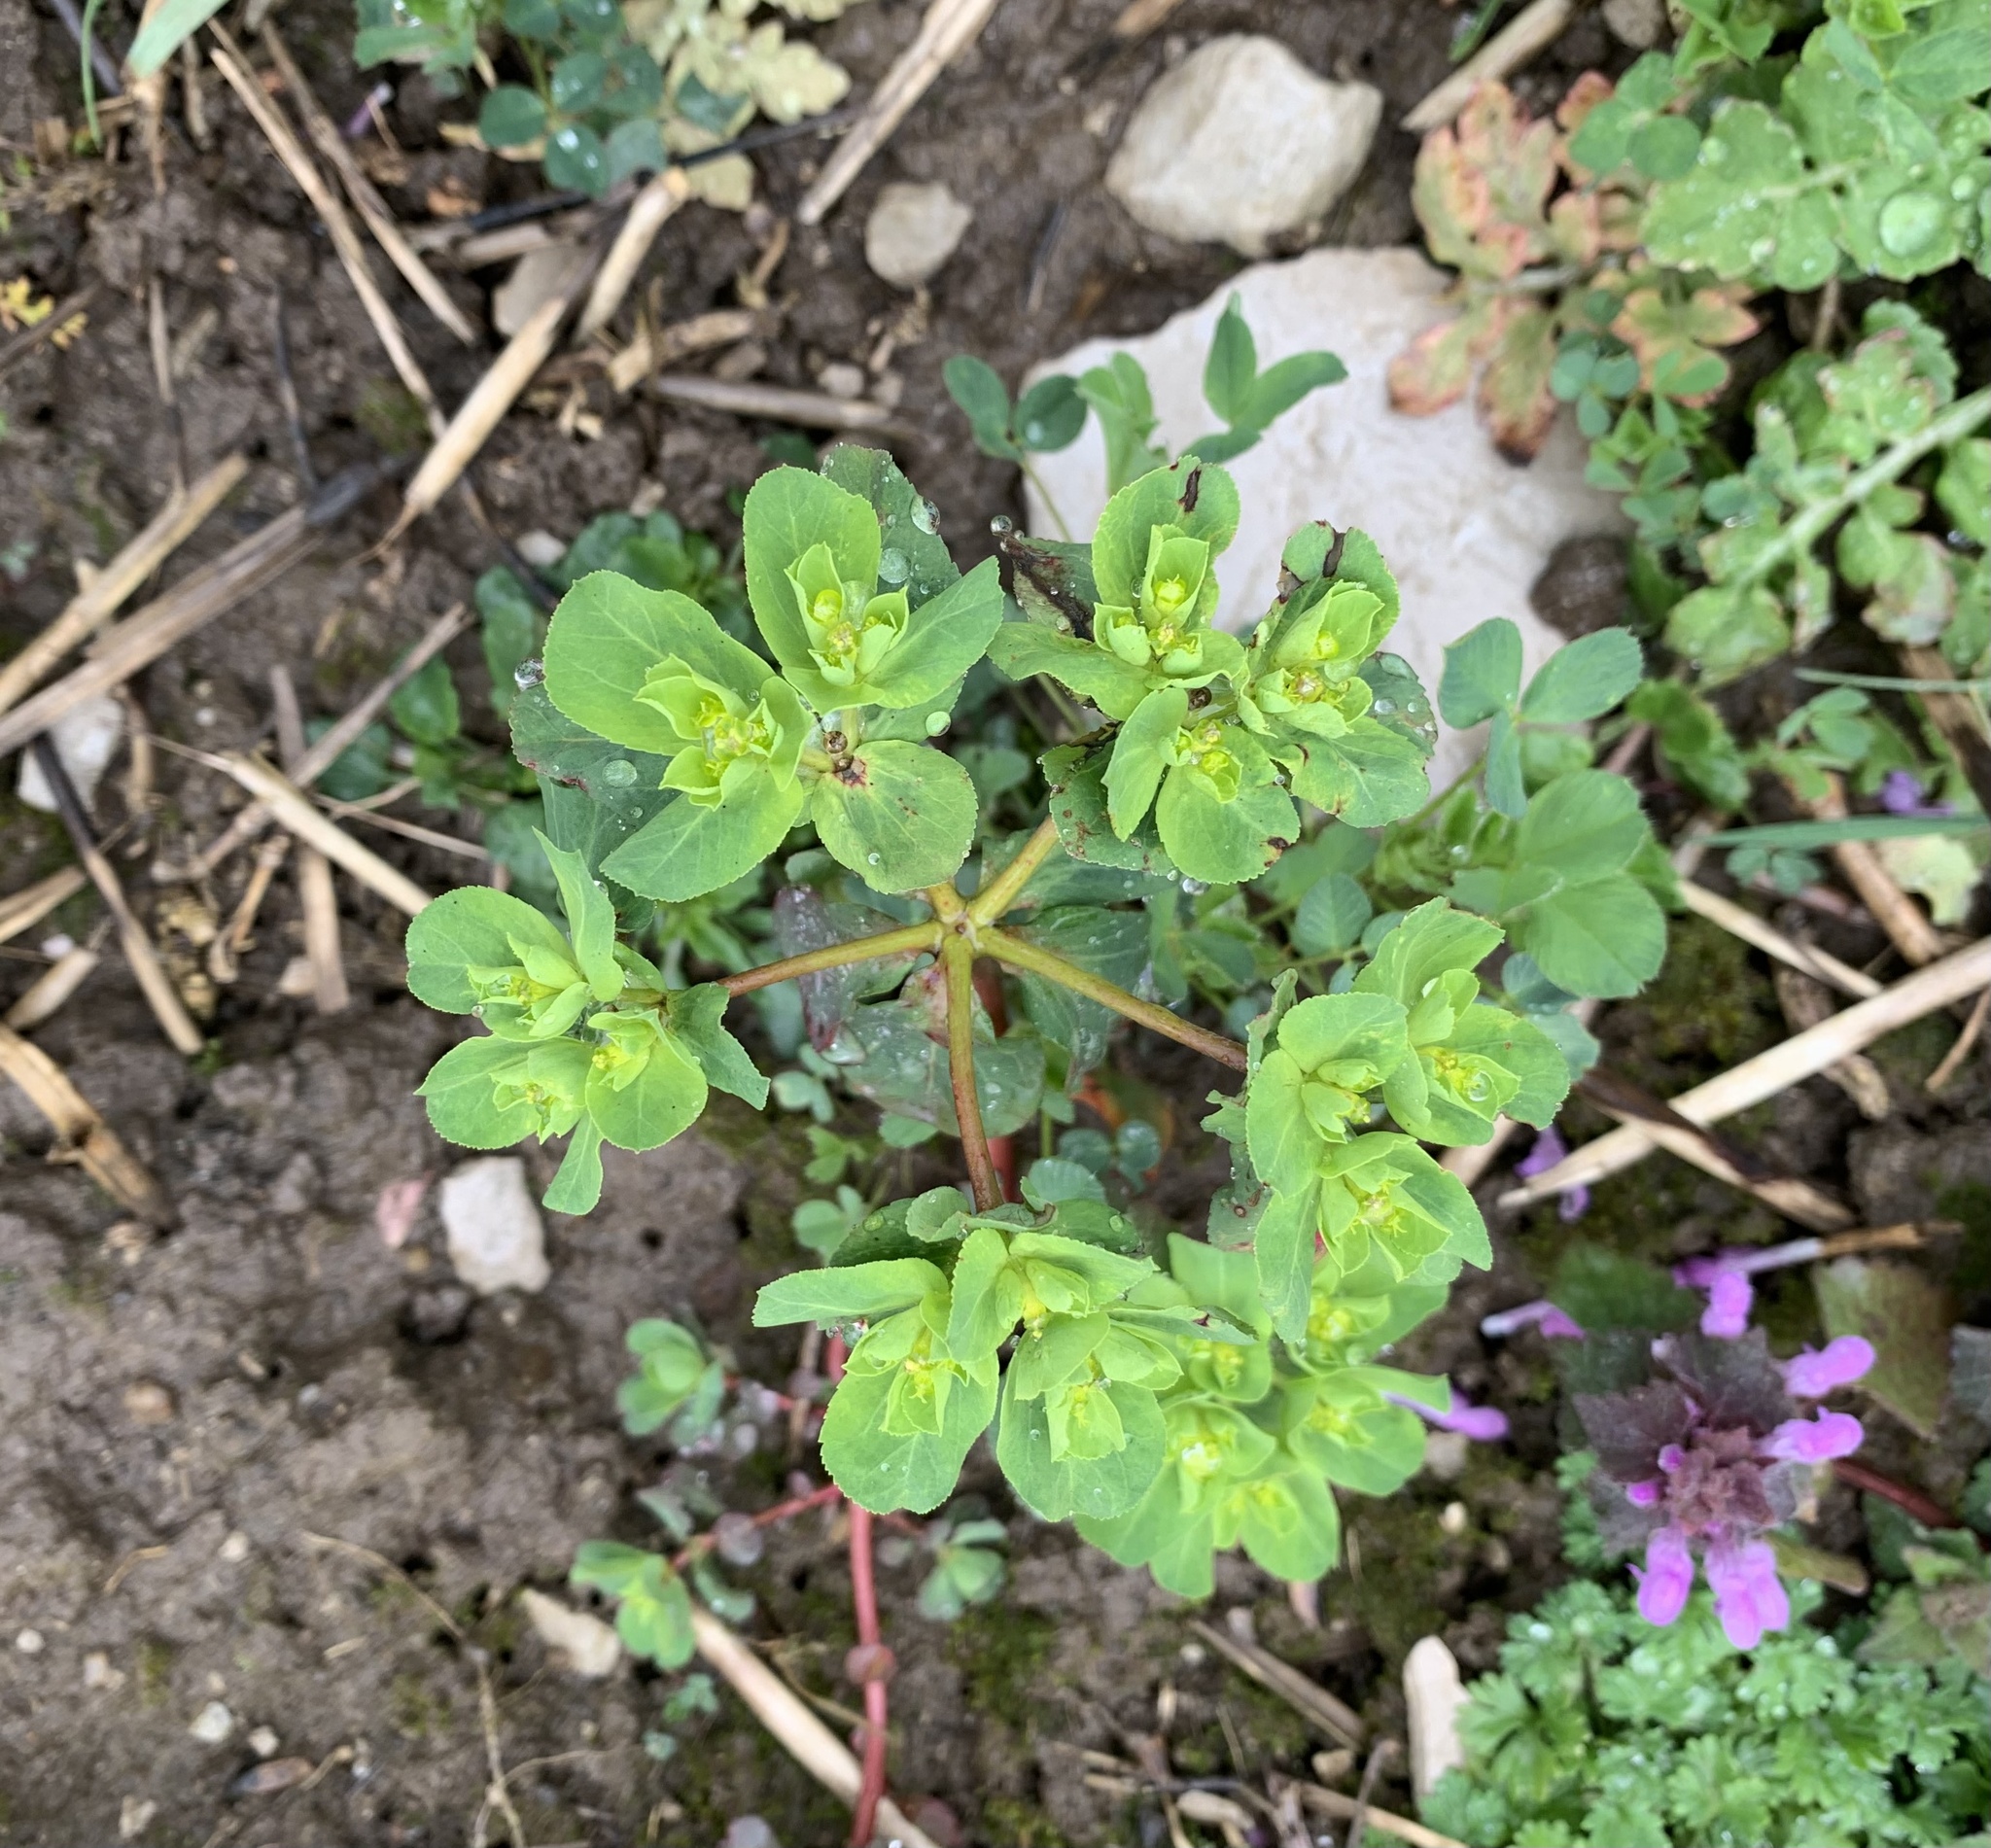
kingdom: Plantae
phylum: Tracheophyta
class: Magnoliopsida
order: Malpighiales
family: Euphorbiaceae
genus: Euphorbia
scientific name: Euphorbia helioscopia
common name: Sun spurge
